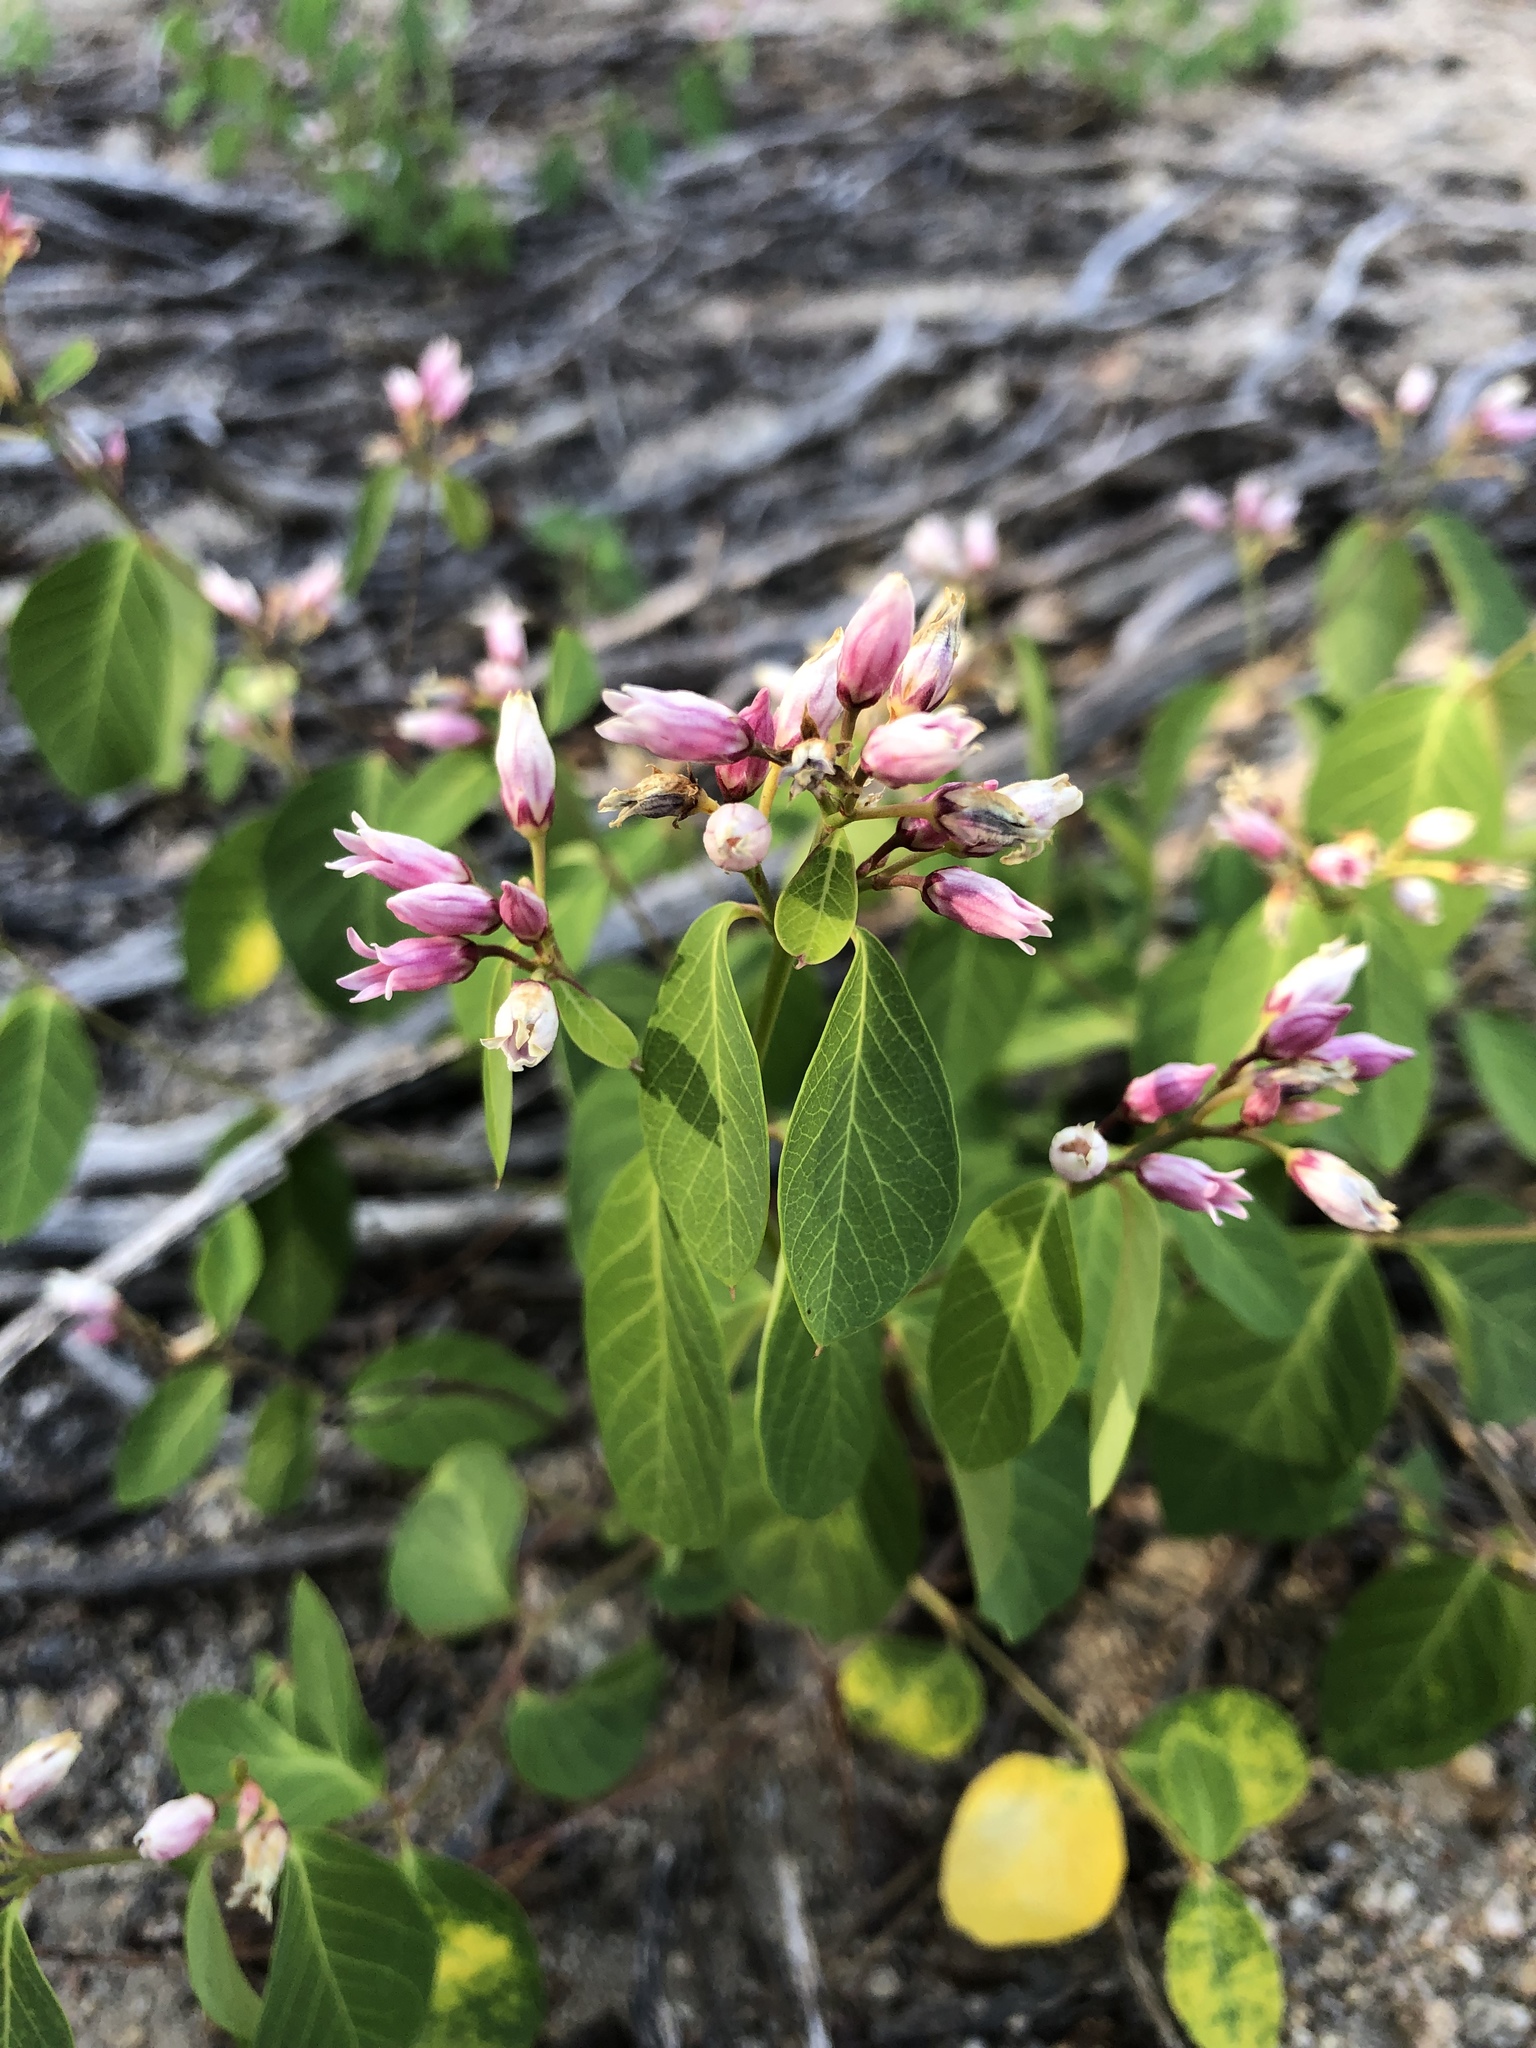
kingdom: Plantae
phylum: Tracheophyta
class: Magnoliopsida
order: Gentianales
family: Apocynaceae
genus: Apocynum
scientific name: Apocynum androsaemifolium
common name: Spreading dogbane
